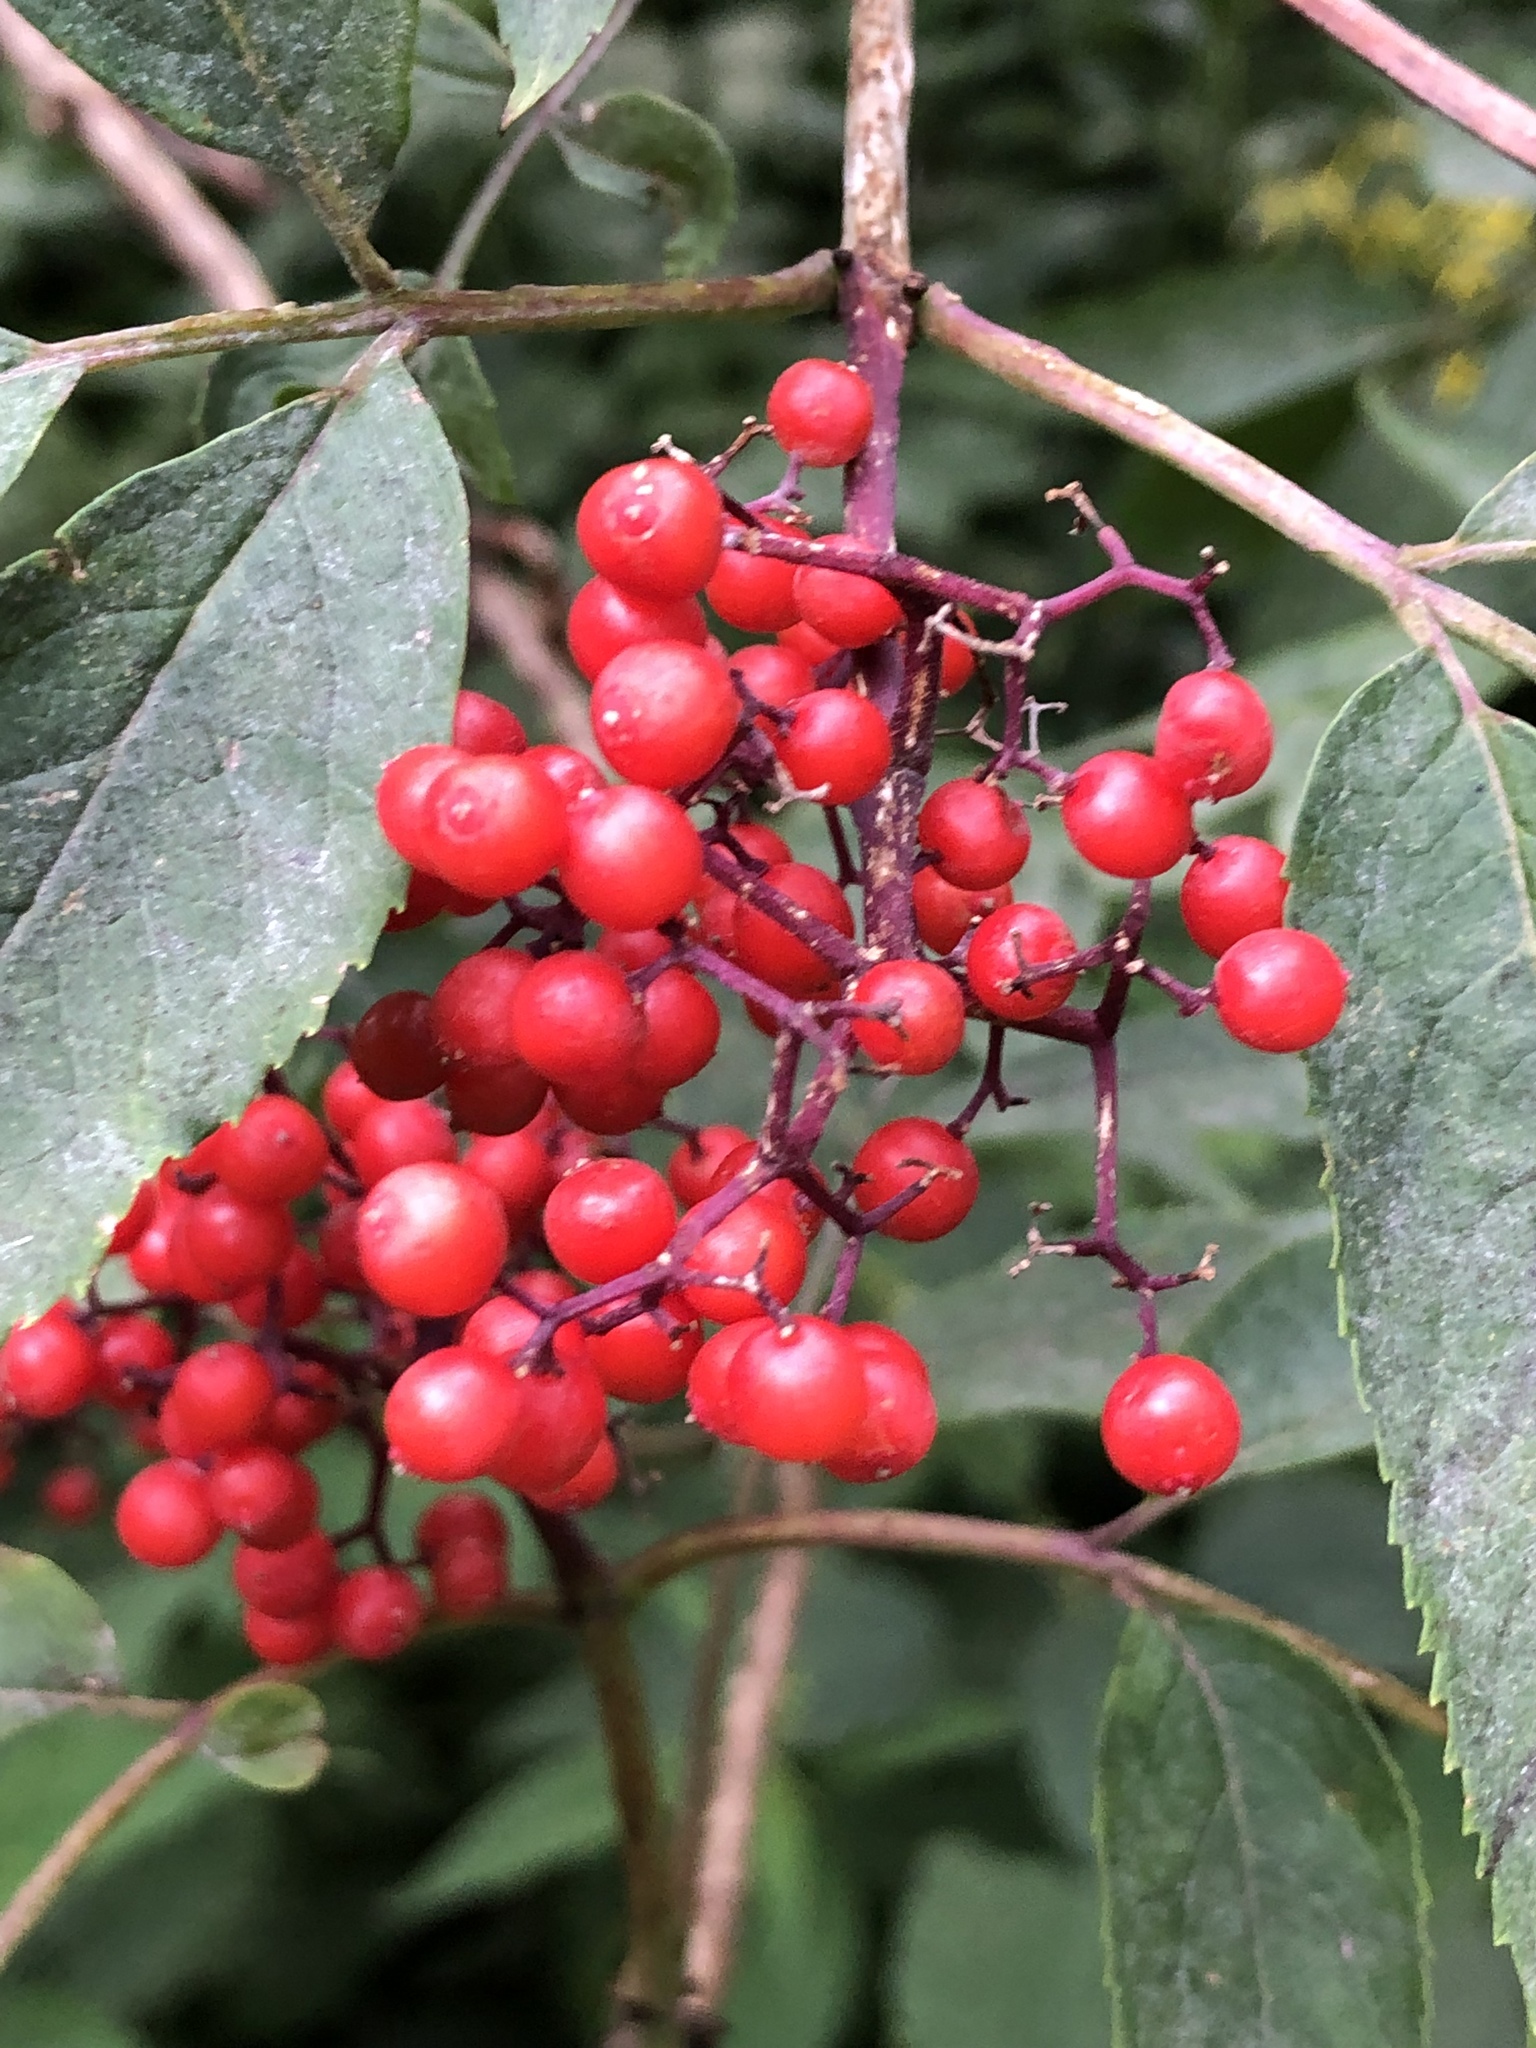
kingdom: Plantae
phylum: Tracheophyta
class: Magnoliopsida
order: Dipsacales
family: Viburnaceae
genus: Sambucus
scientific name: Sambucus racemosa
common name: Red-berried elder
